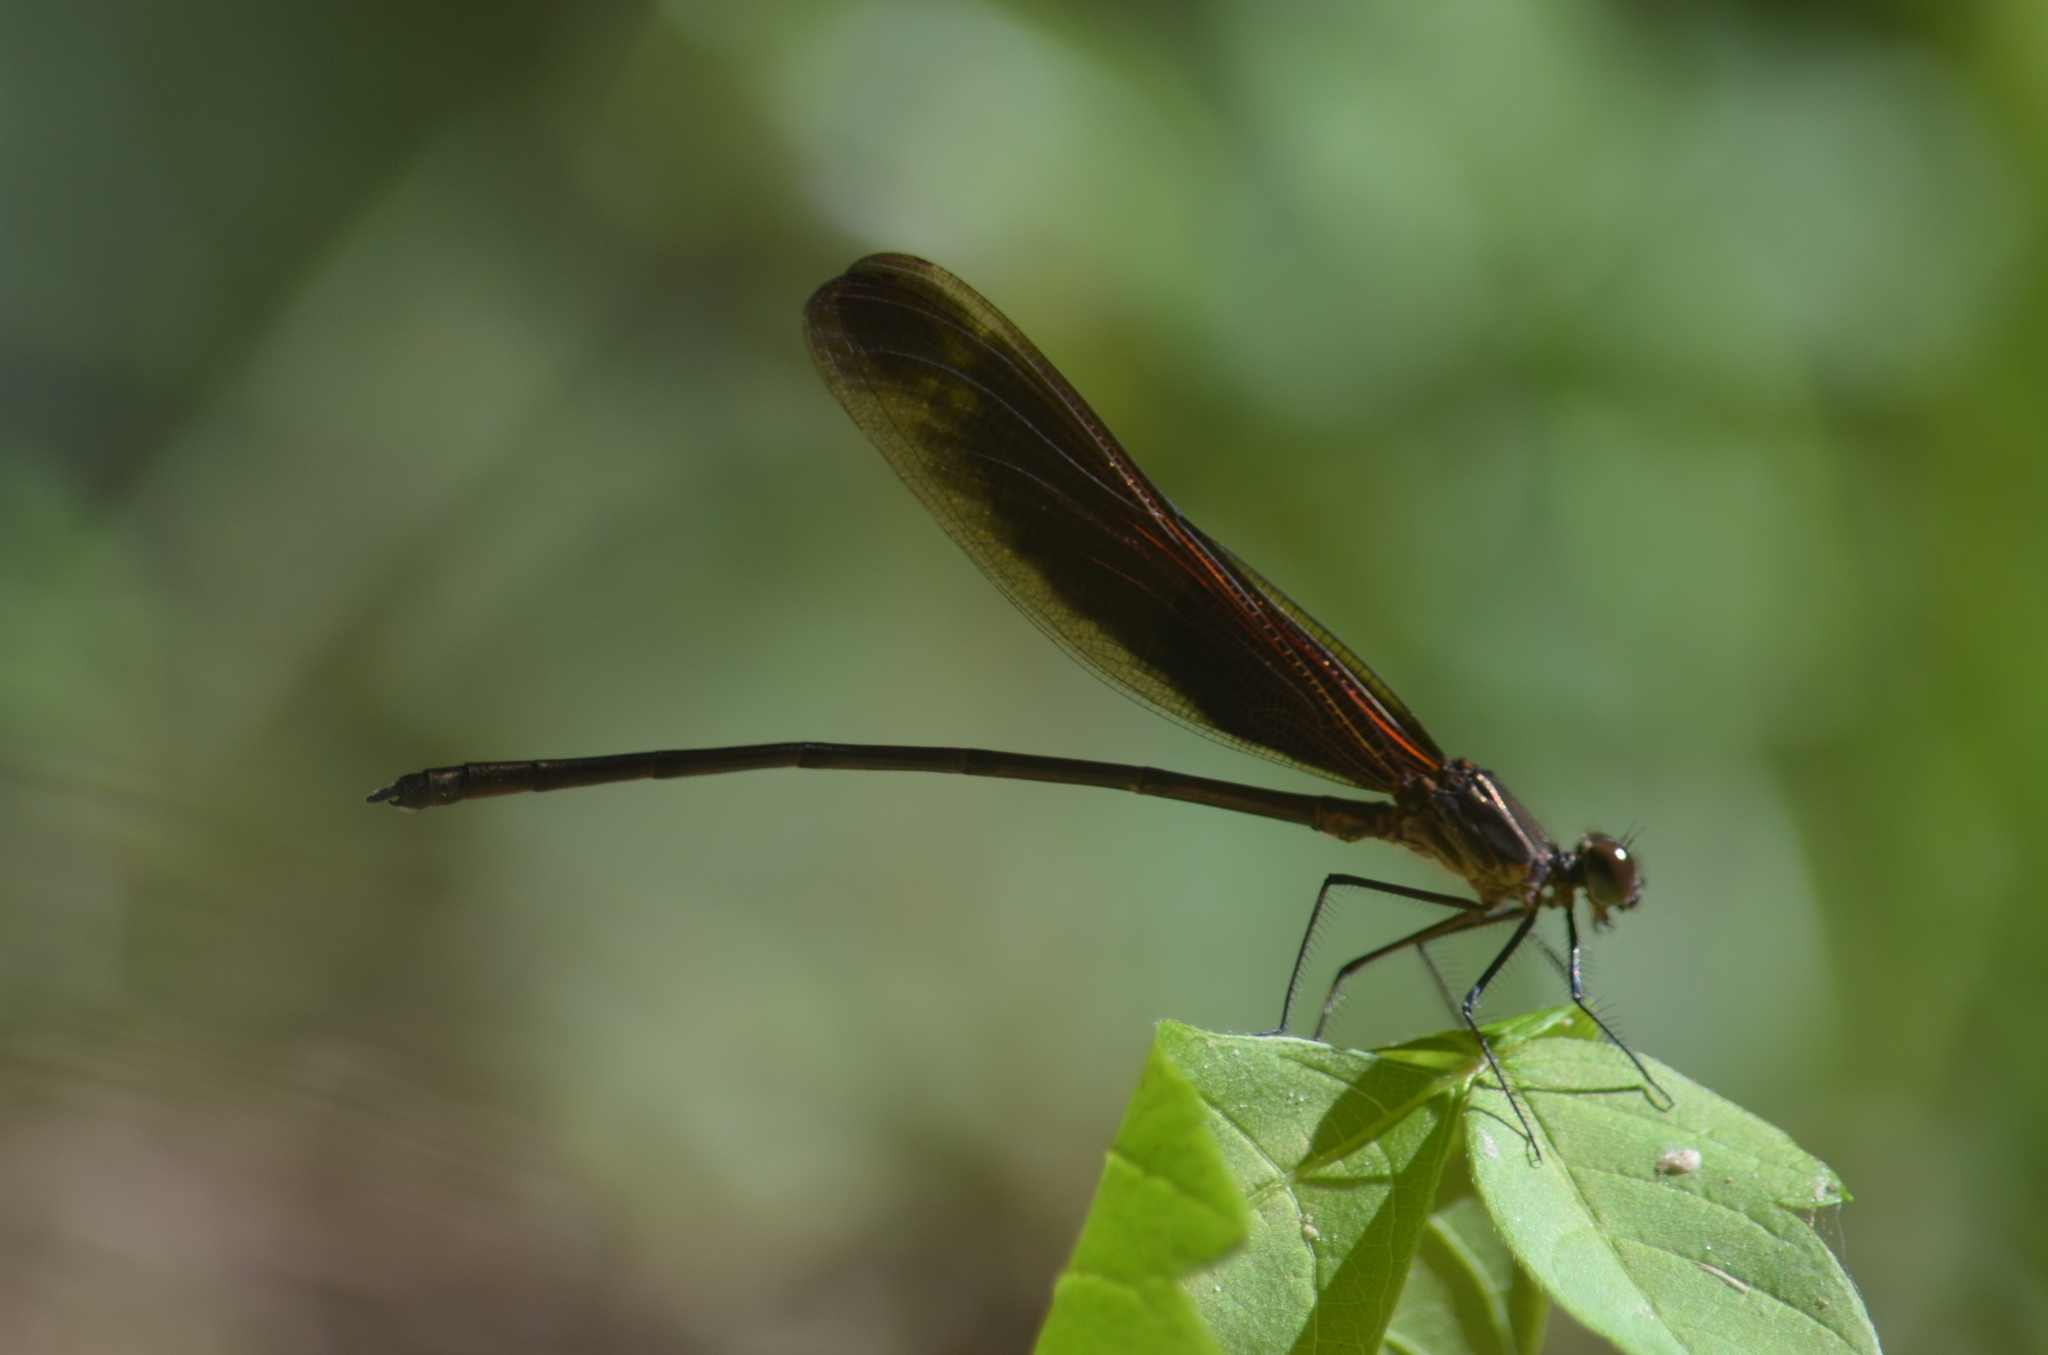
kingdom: Animalia
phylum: Arthropoda
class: Insecta
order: Odonata
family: Calopterygidae
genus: Hetaerina
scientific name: Hetaerina titia
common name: Smoky rubyspot
